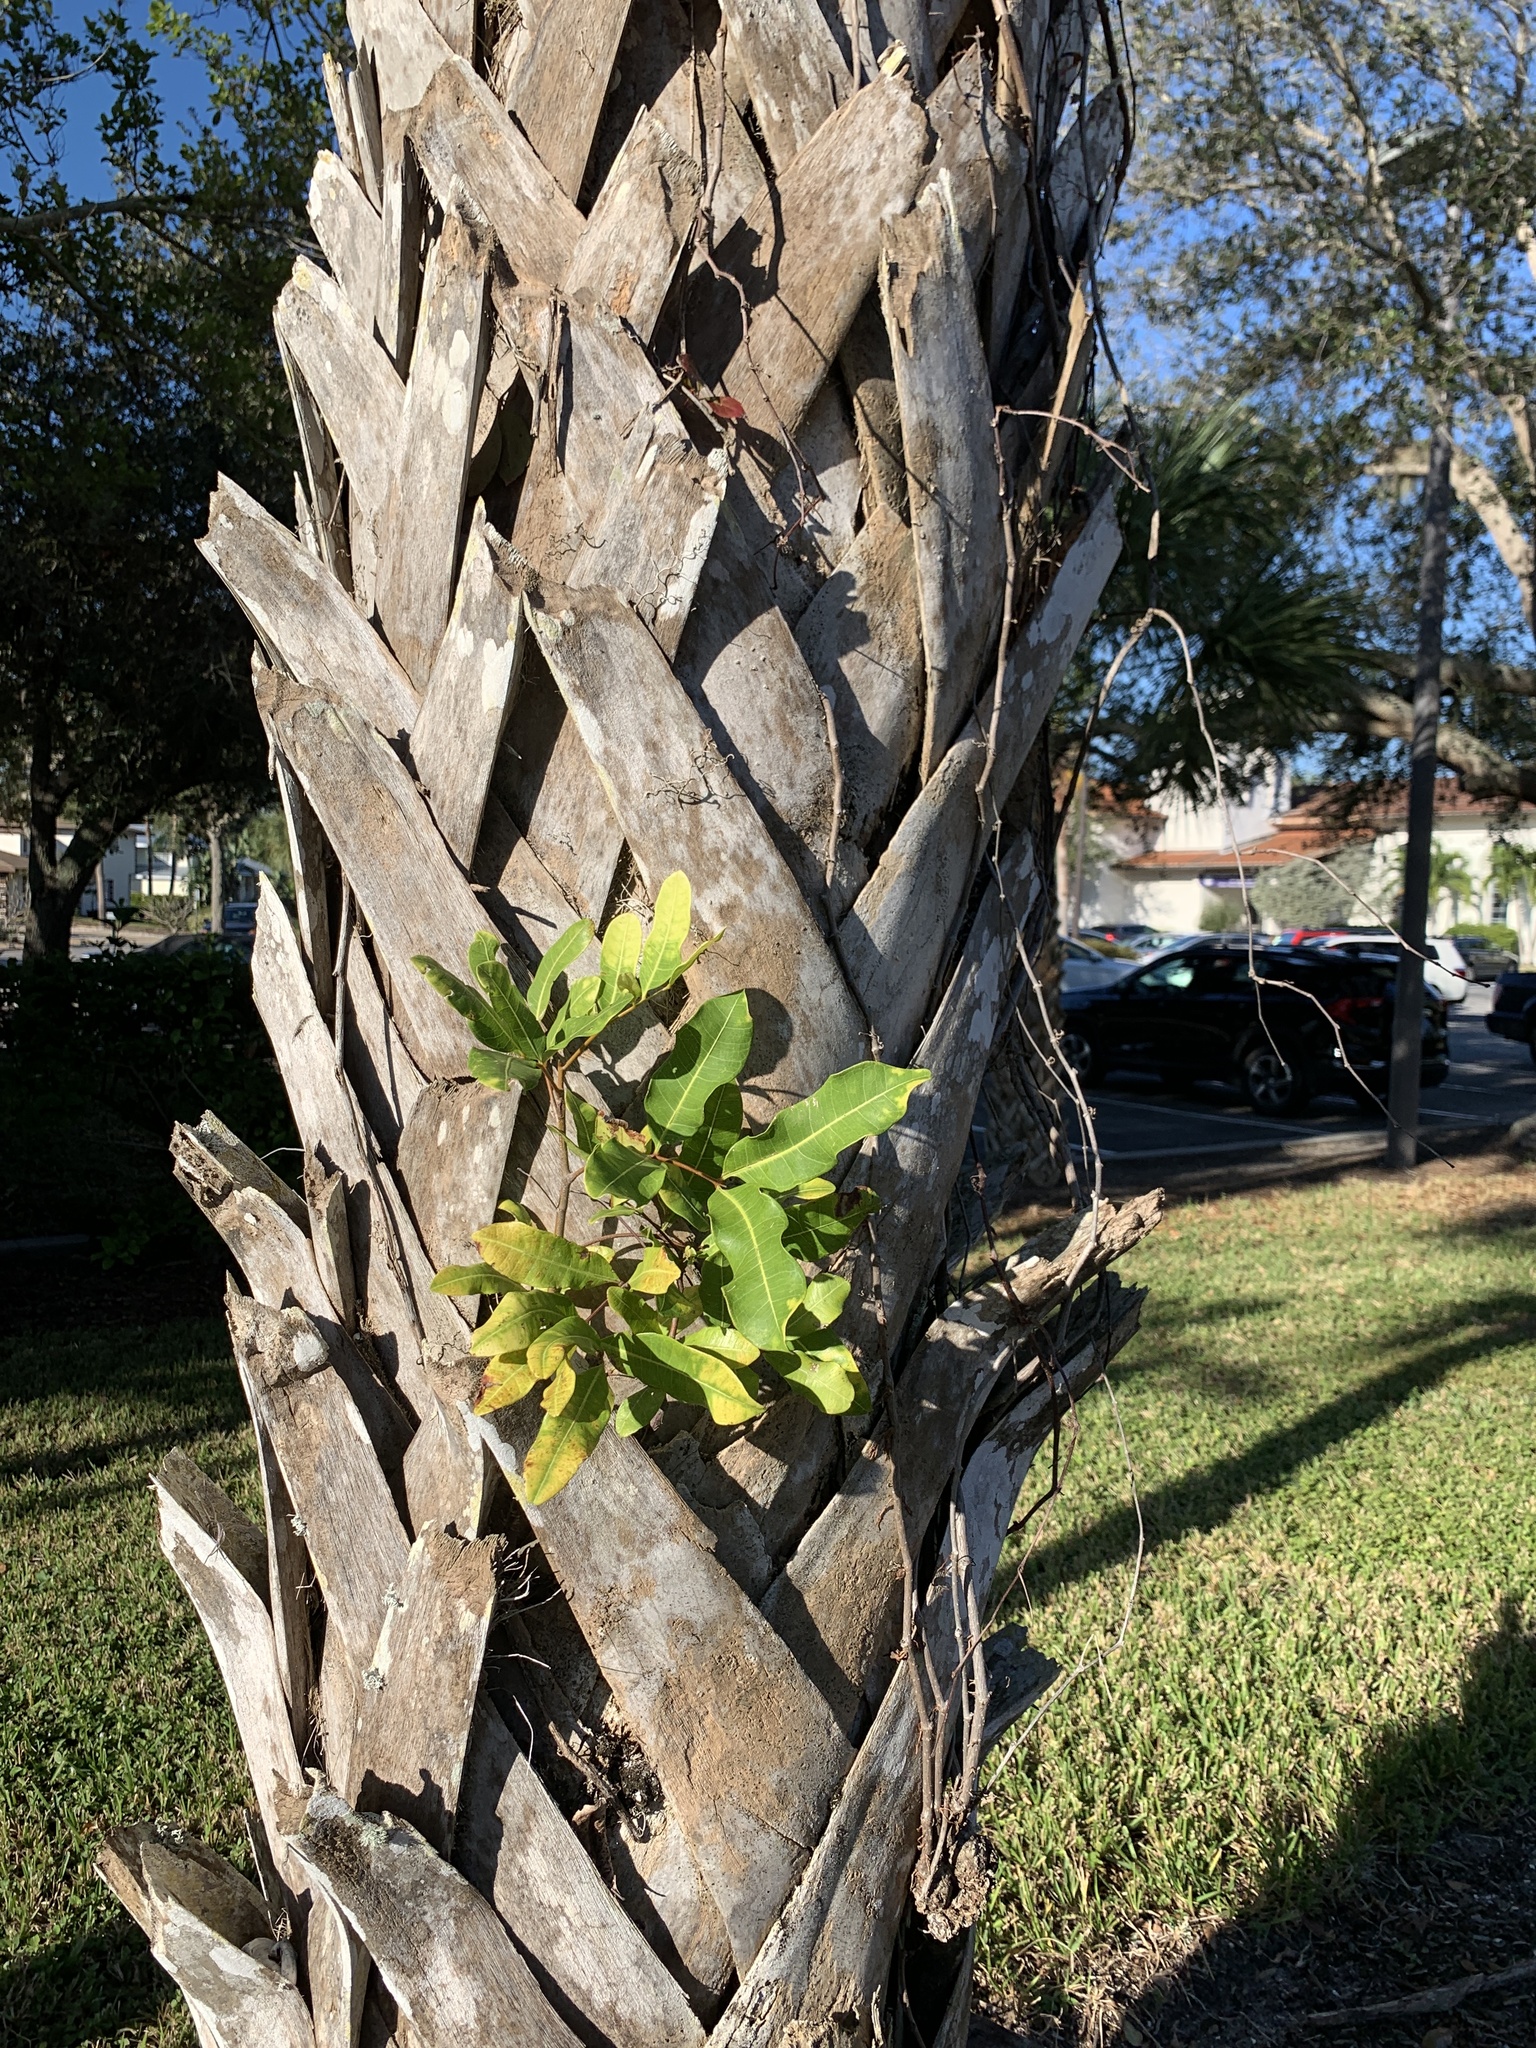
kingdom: Plantae
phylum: Tracheophyta
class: Magnoliopsida
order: Sapindales
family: Sapindaceae
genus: Cupaniopsis
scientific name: Cupaniopsis anacardioides
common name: Carrotwood
